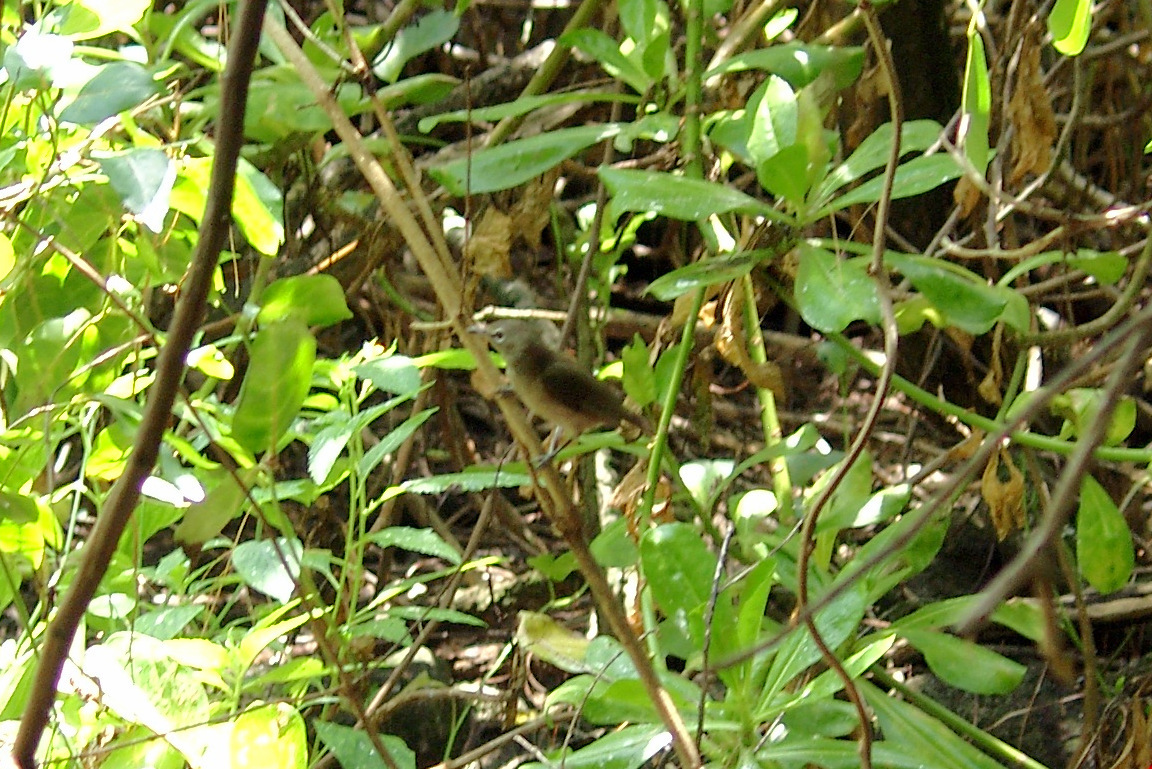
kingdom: Animalia
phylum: Chordata
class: Aves
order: Passeriformes
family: Zosteropidae
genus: Zosterops
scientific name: Zosterops modestus
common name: Seychelles white-eye
